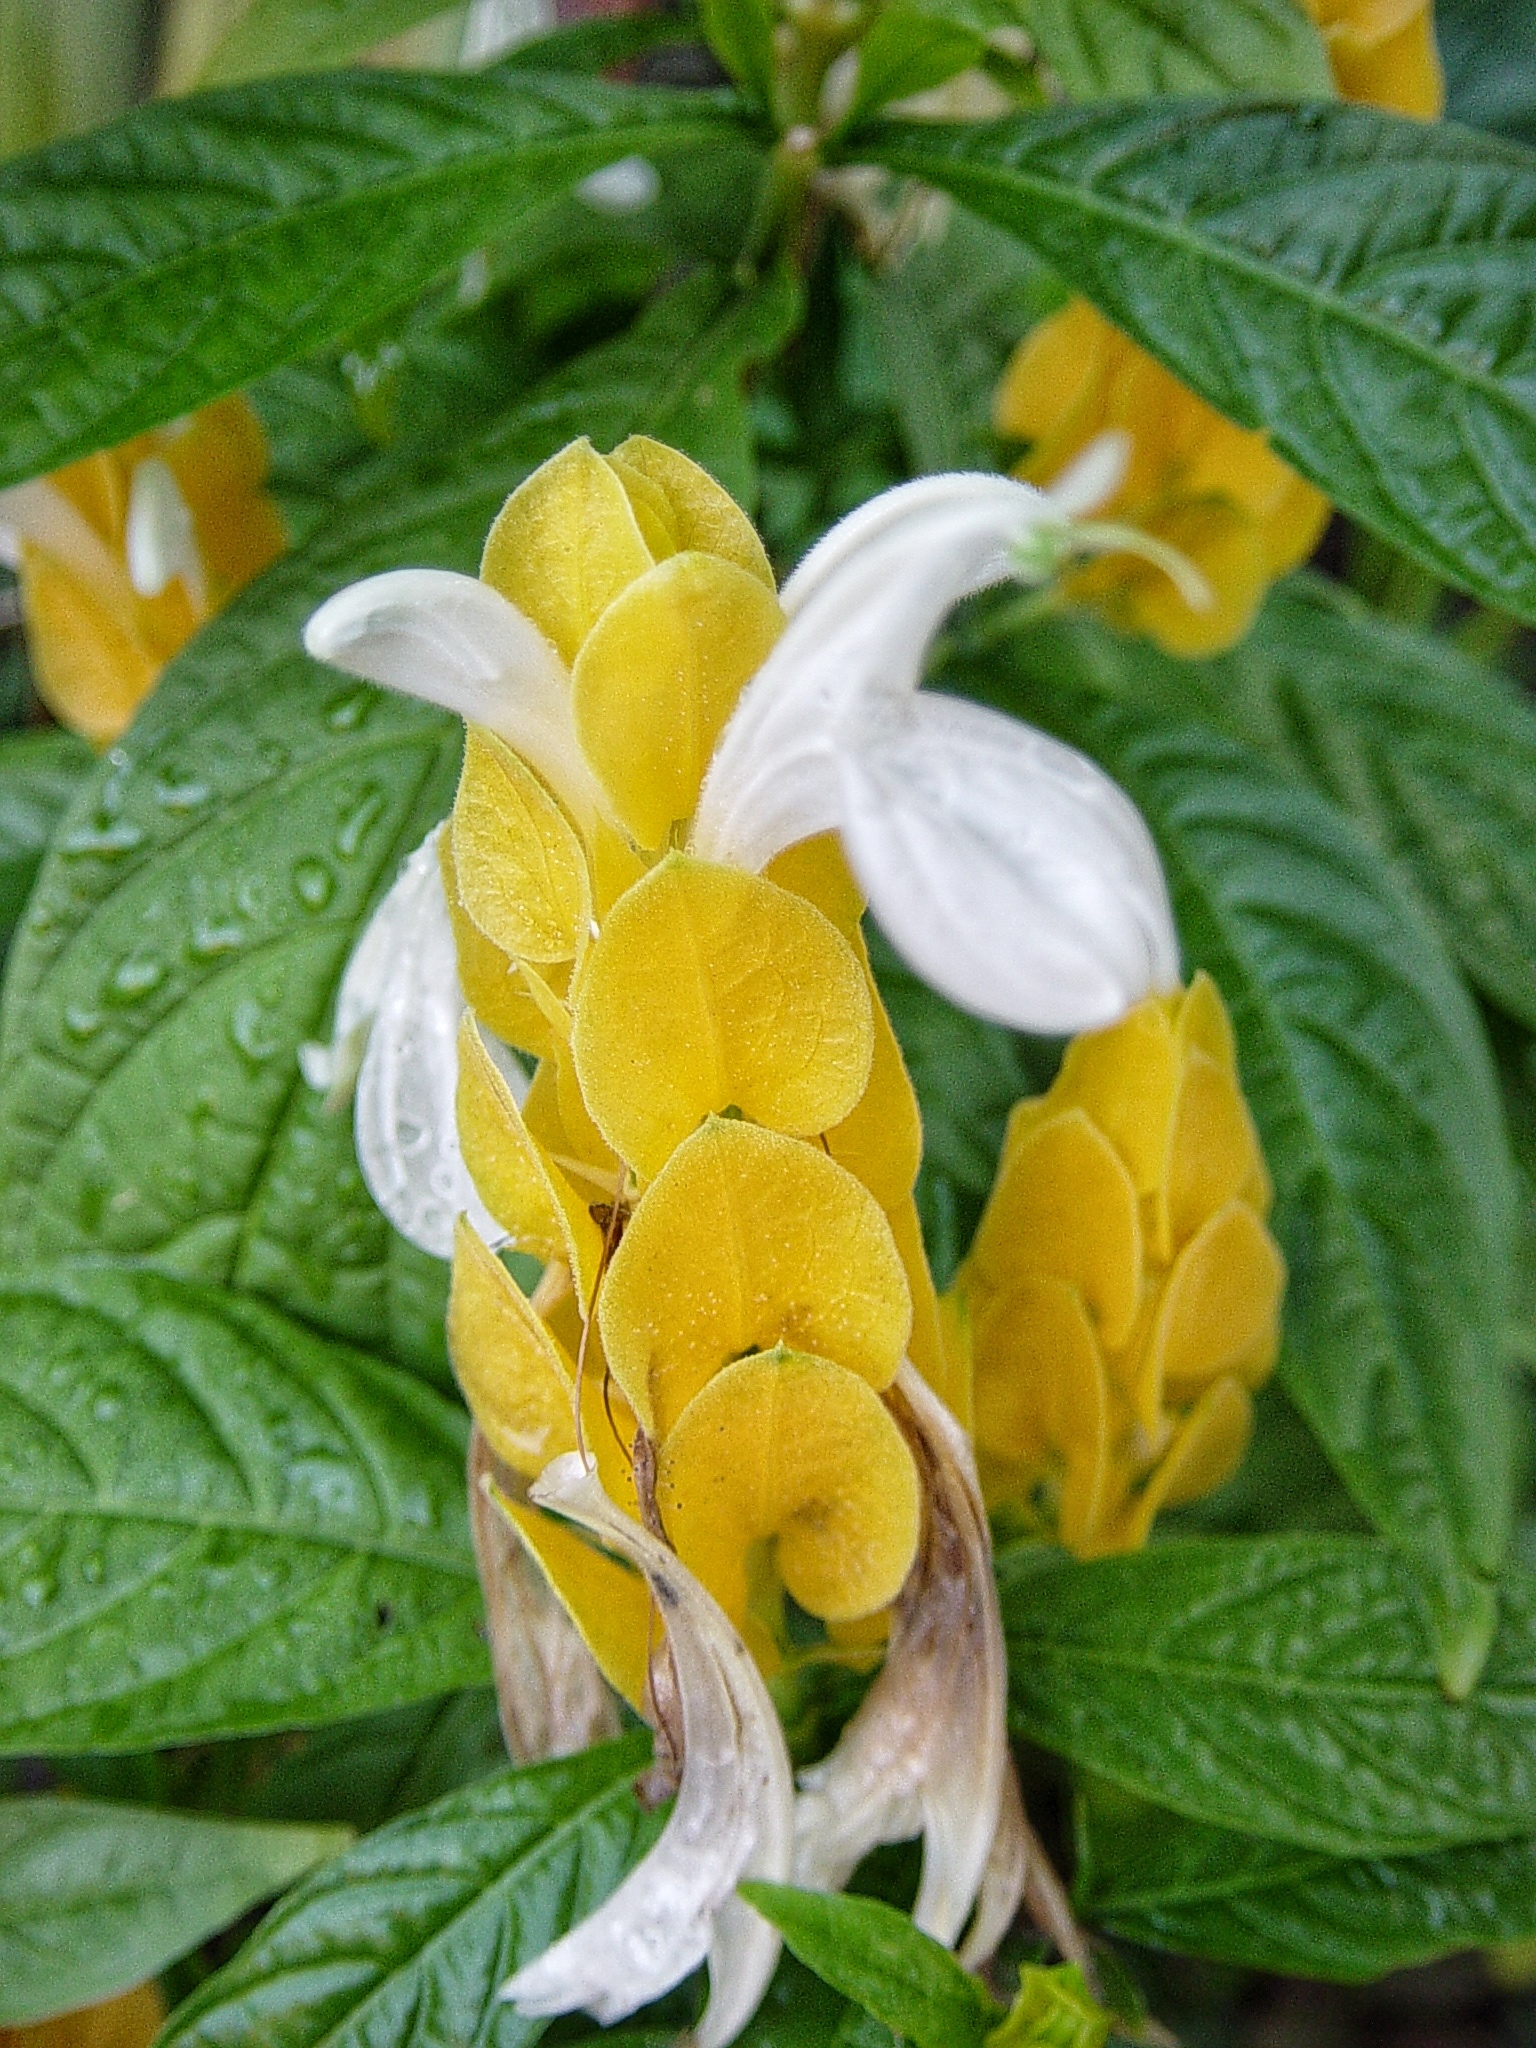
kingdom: Plantae
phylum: Tracheophyta
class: Magnoliopsida
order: Lamiales
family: Acanthaceae
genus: Pachystachys
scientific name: Pachystachys lutea
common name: Golden shrimp-plant
